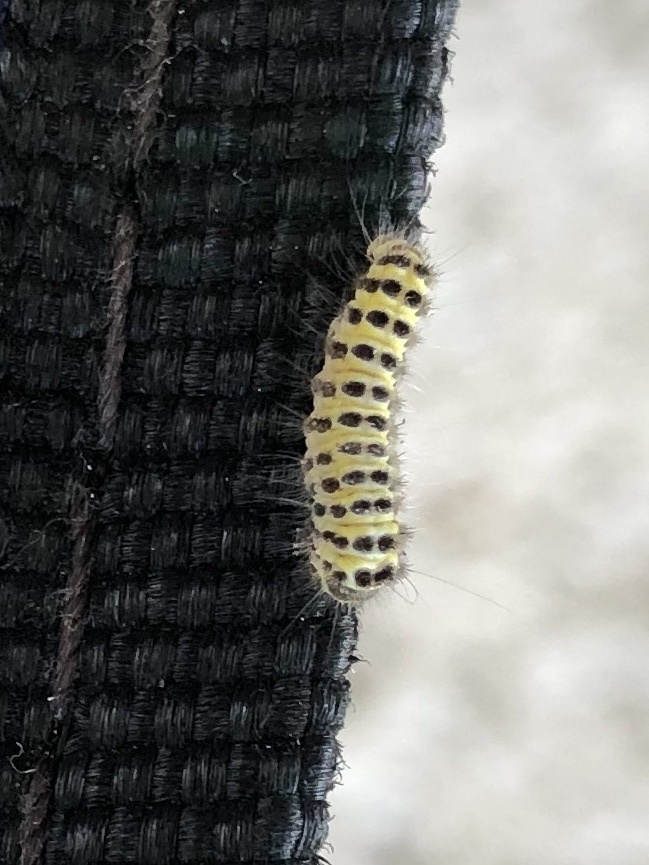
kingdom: Animalia
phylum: Arthropoda
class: Insecta
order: Lepidoptera
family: Zygaenidae
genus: Harrisina
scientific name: Harrisina americana
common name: Grapeleaf skeletonizer moth
